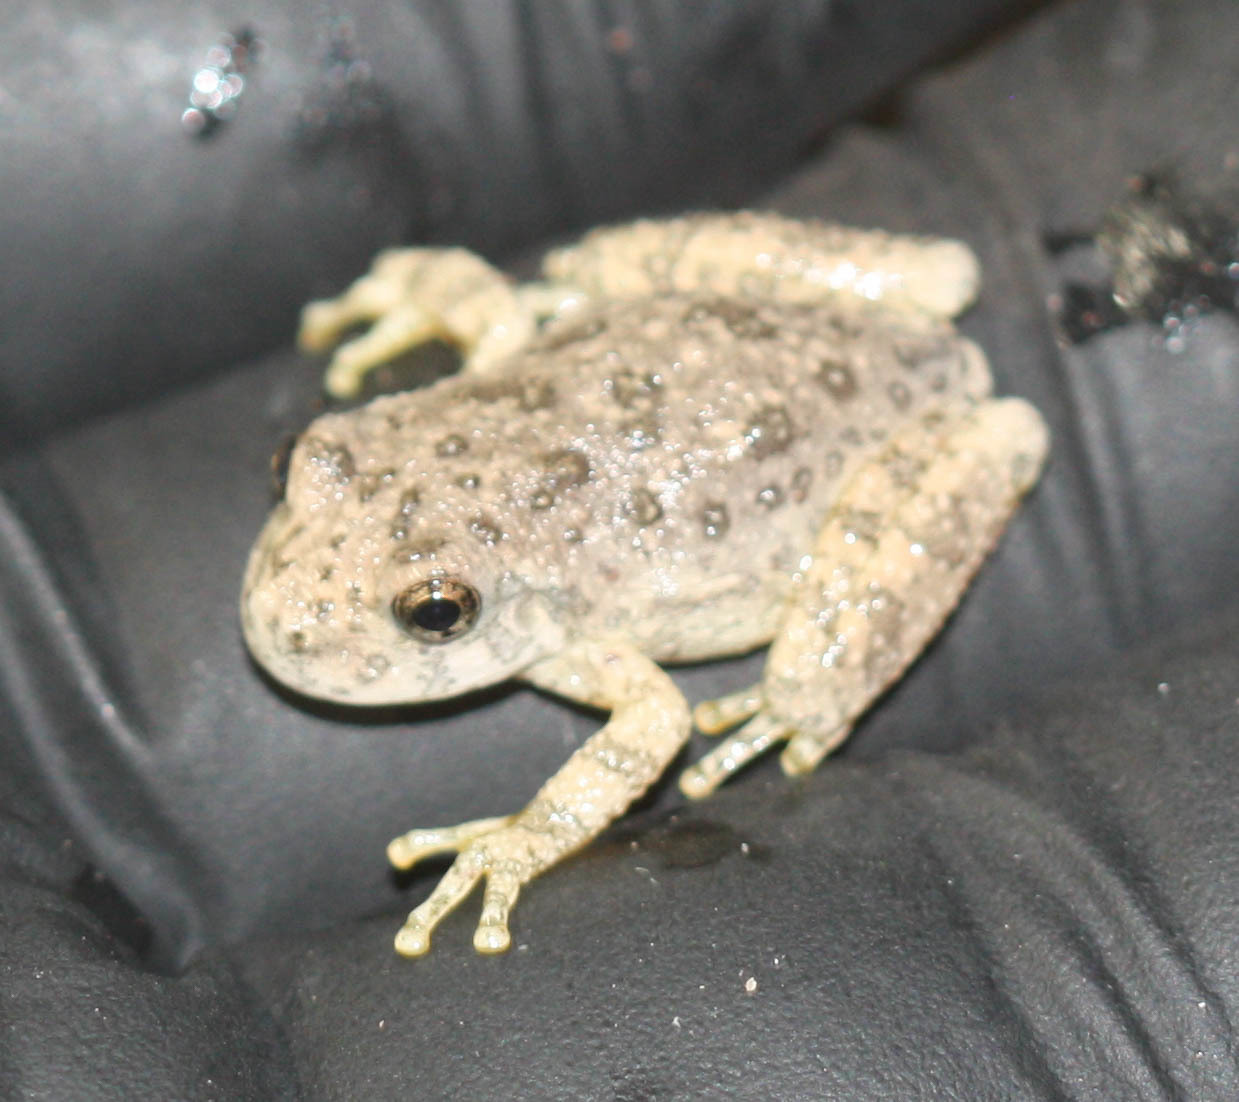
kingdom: Animalia
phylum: Chordata
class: Amphibia
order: Anura
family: Hylidae
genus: Dryophytes
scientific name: Dryophytes arenicolor
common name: Canyon treefrog
